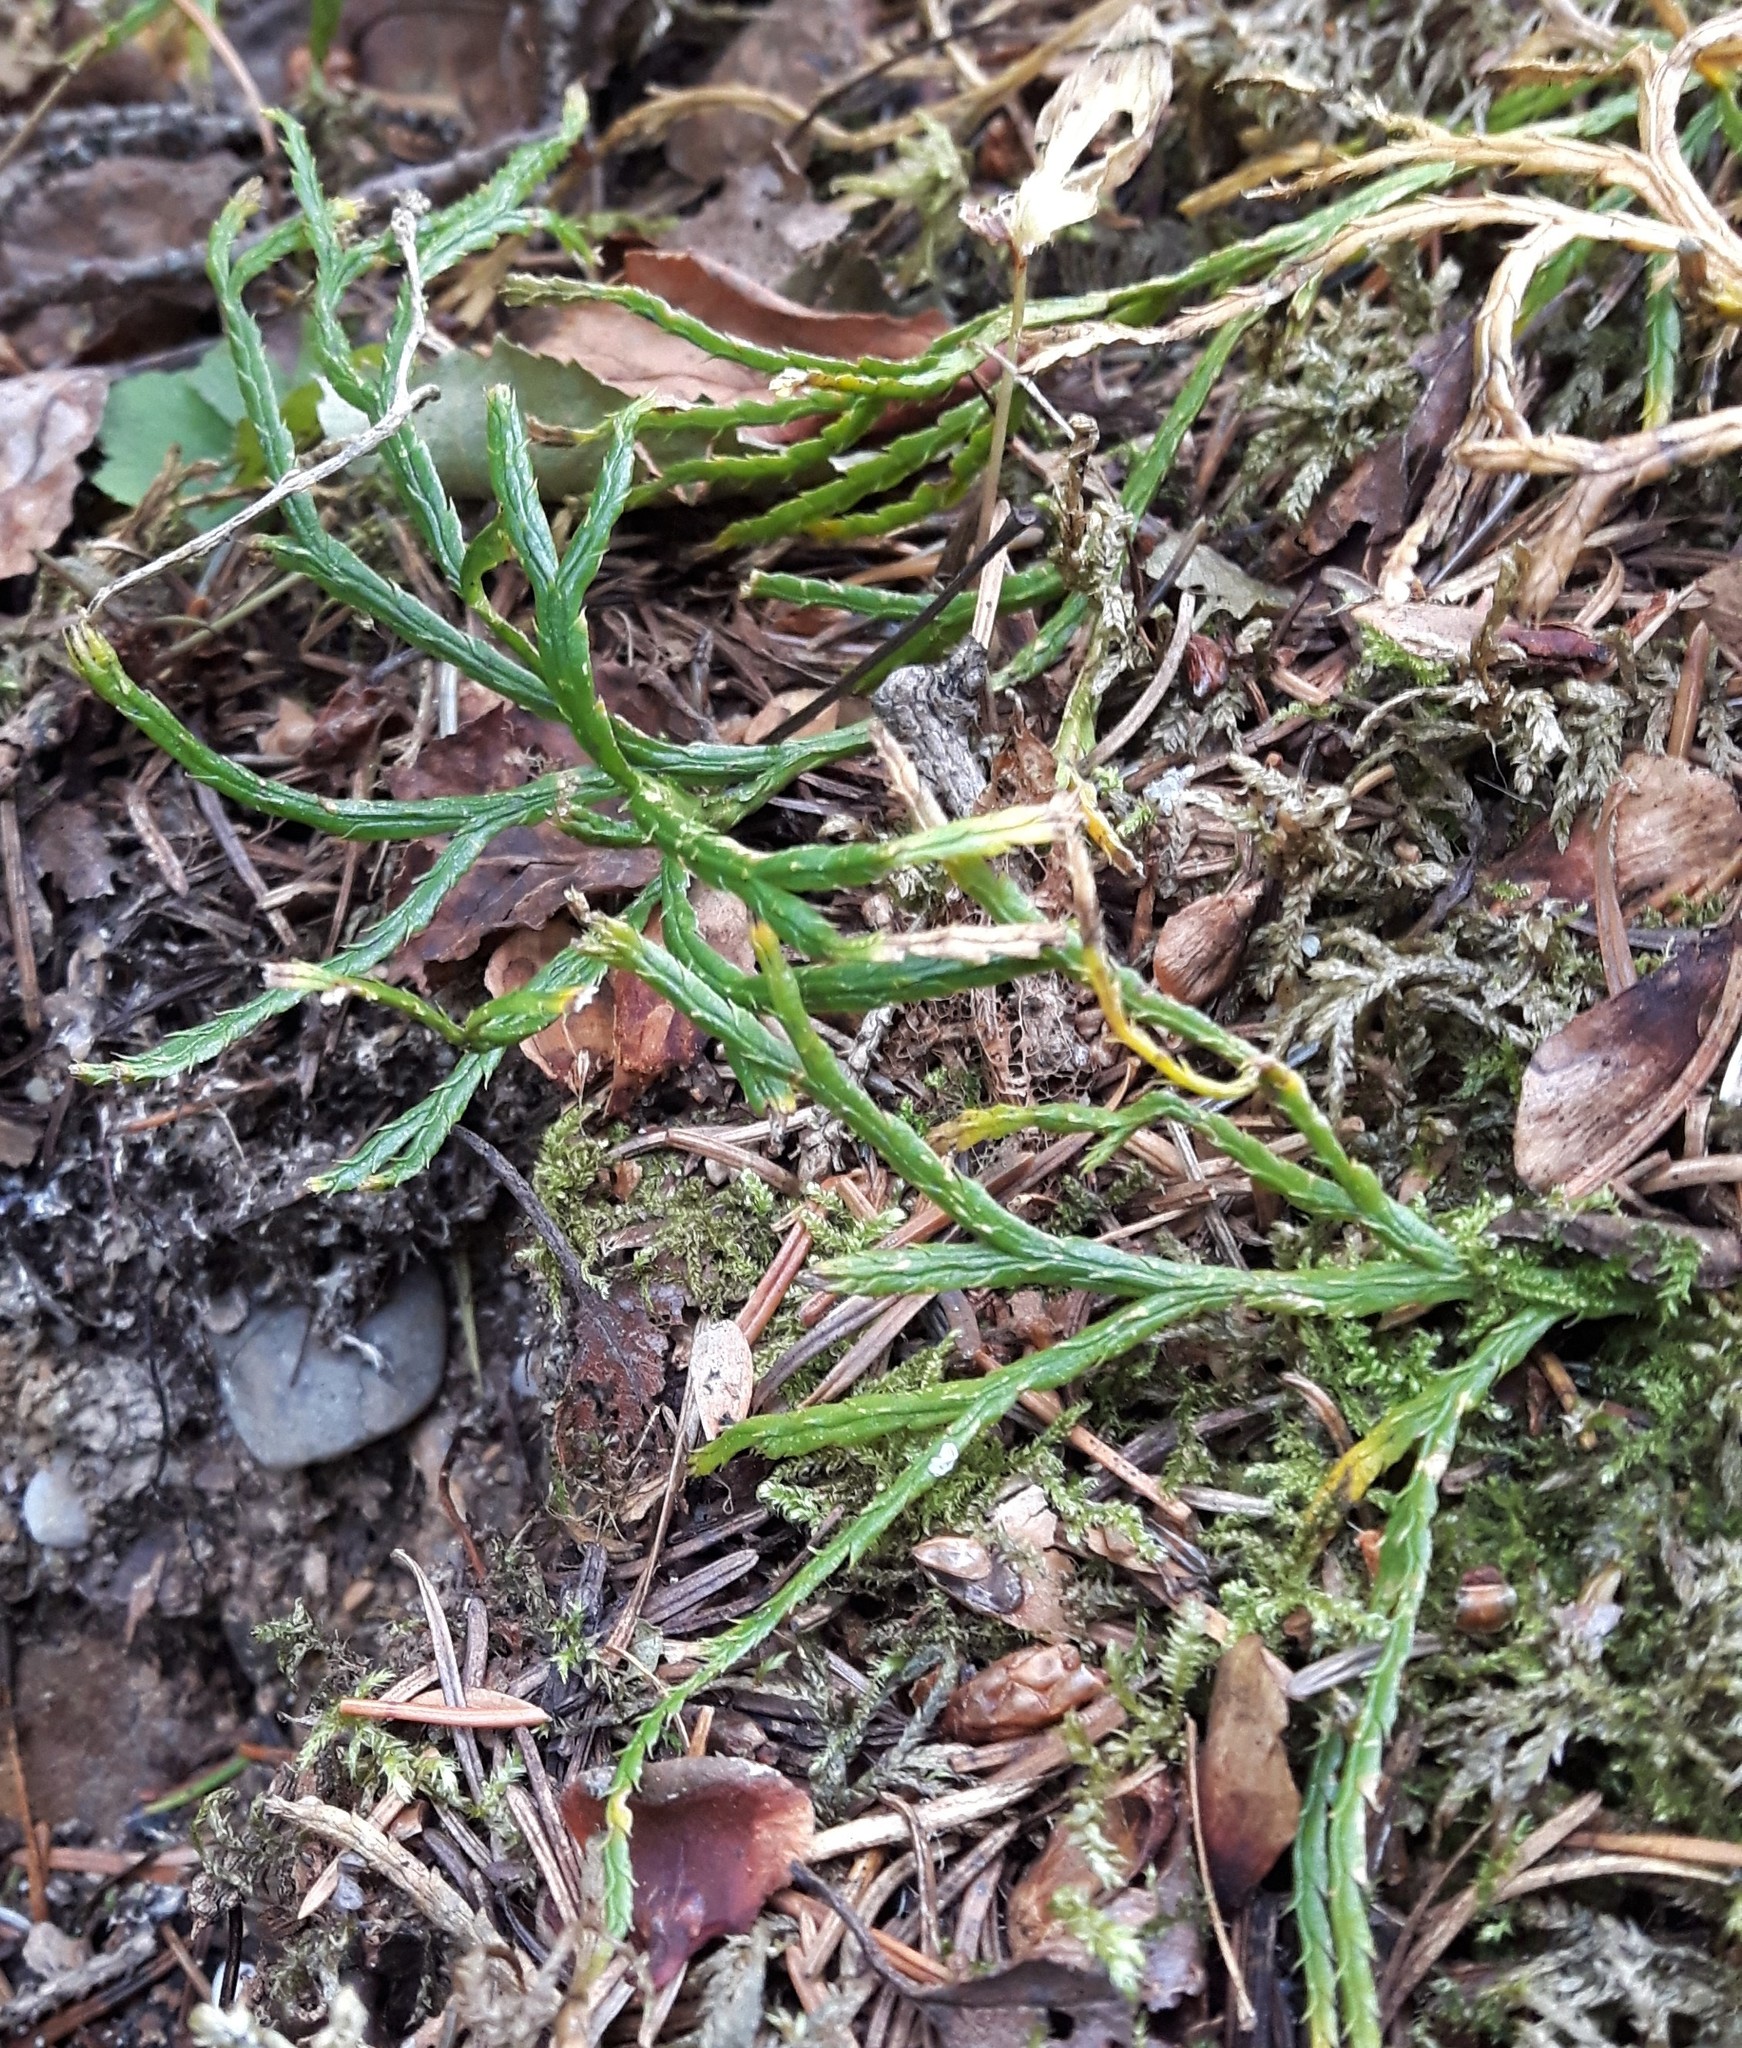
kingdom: Plantae
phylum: Tracheophyta
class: Lycopodiopsida
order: Lycopodiales
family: Lycopodiaceae
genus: Diphasiastrum
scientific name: Diphasiastrum complanatum
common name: Northern running-pine
